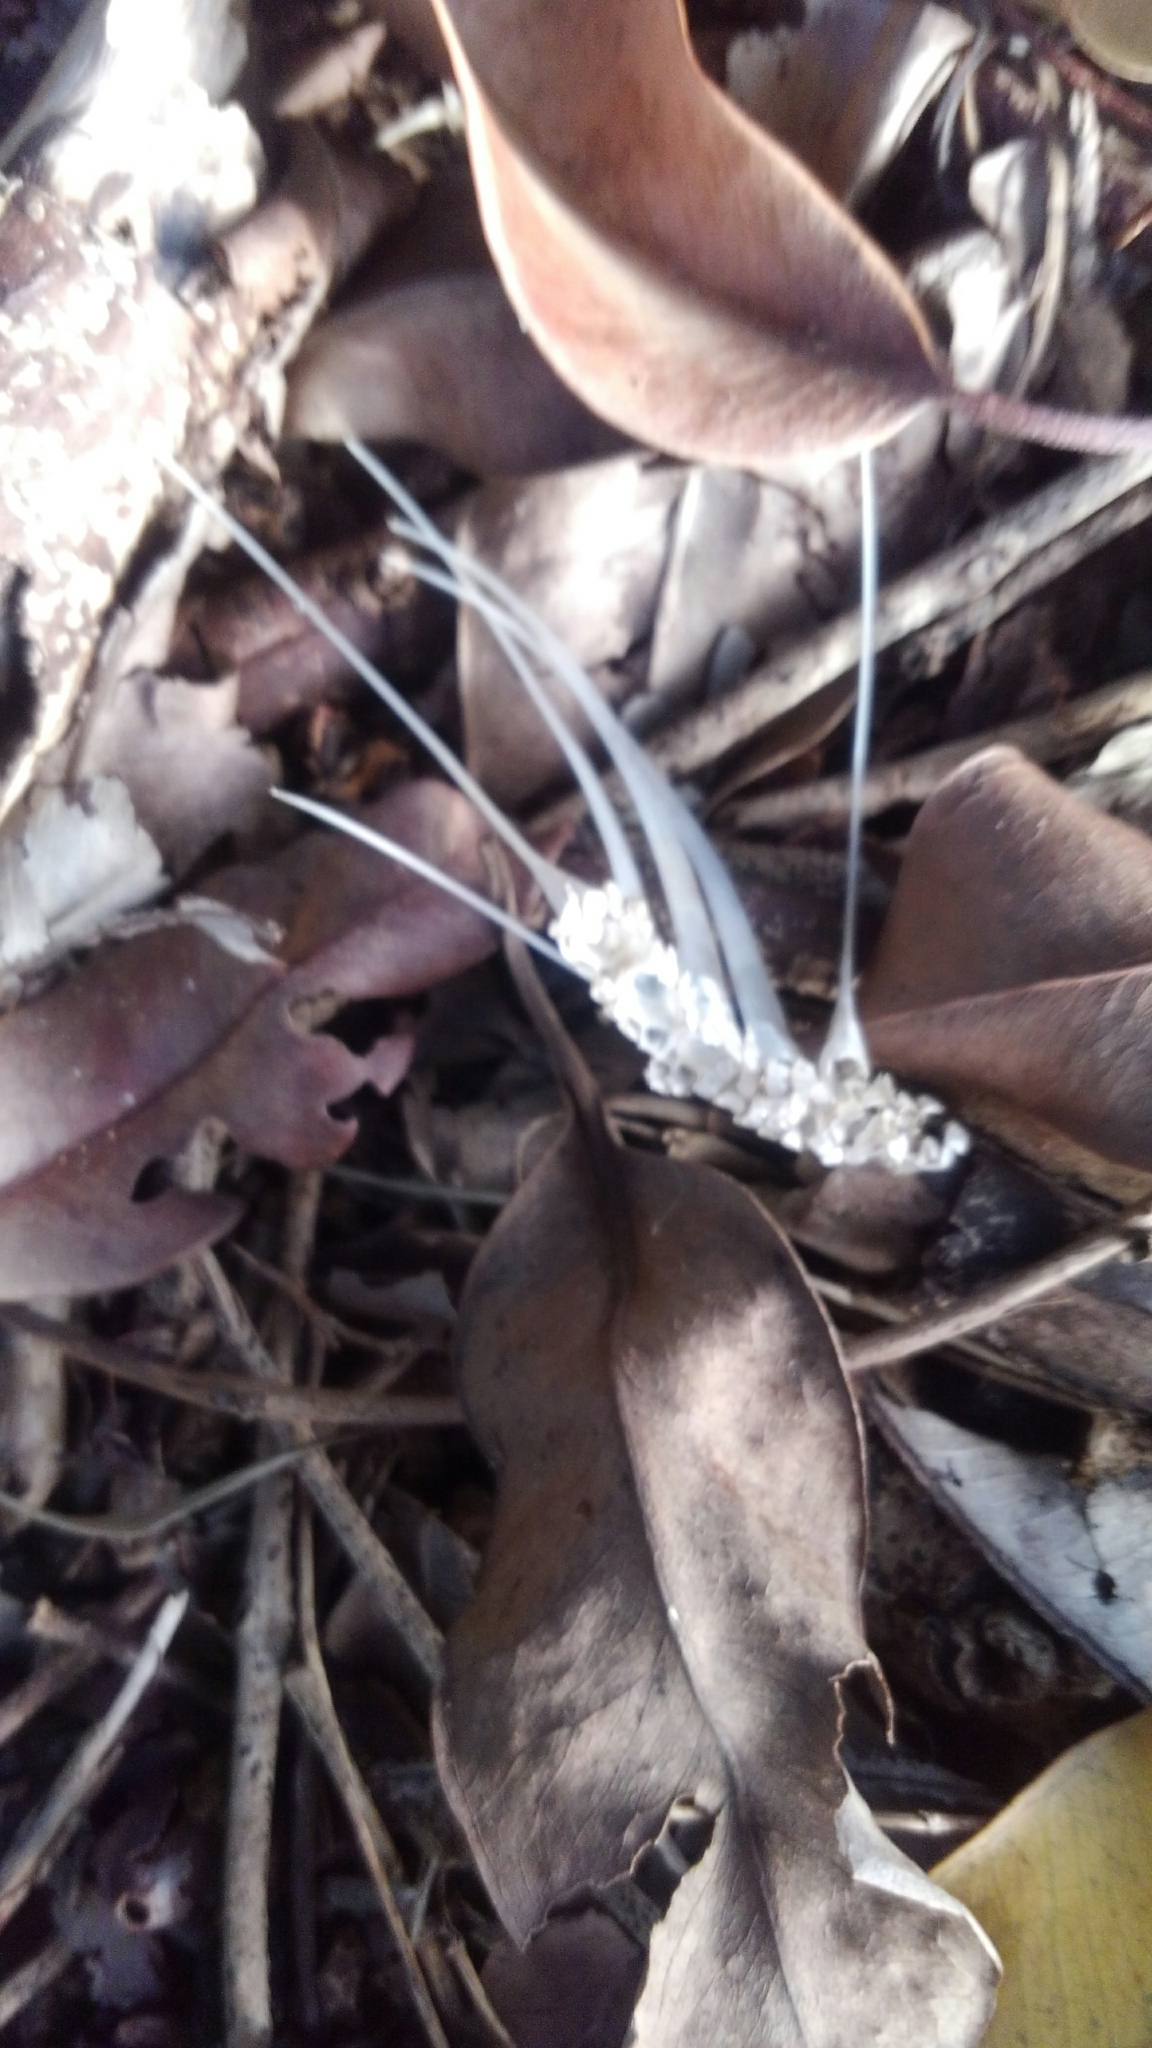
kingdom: Animalia
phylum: Chordata
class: Squamata
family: Iguanidae
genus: Iguana
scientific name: Iguana iguana
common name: Green iguana
